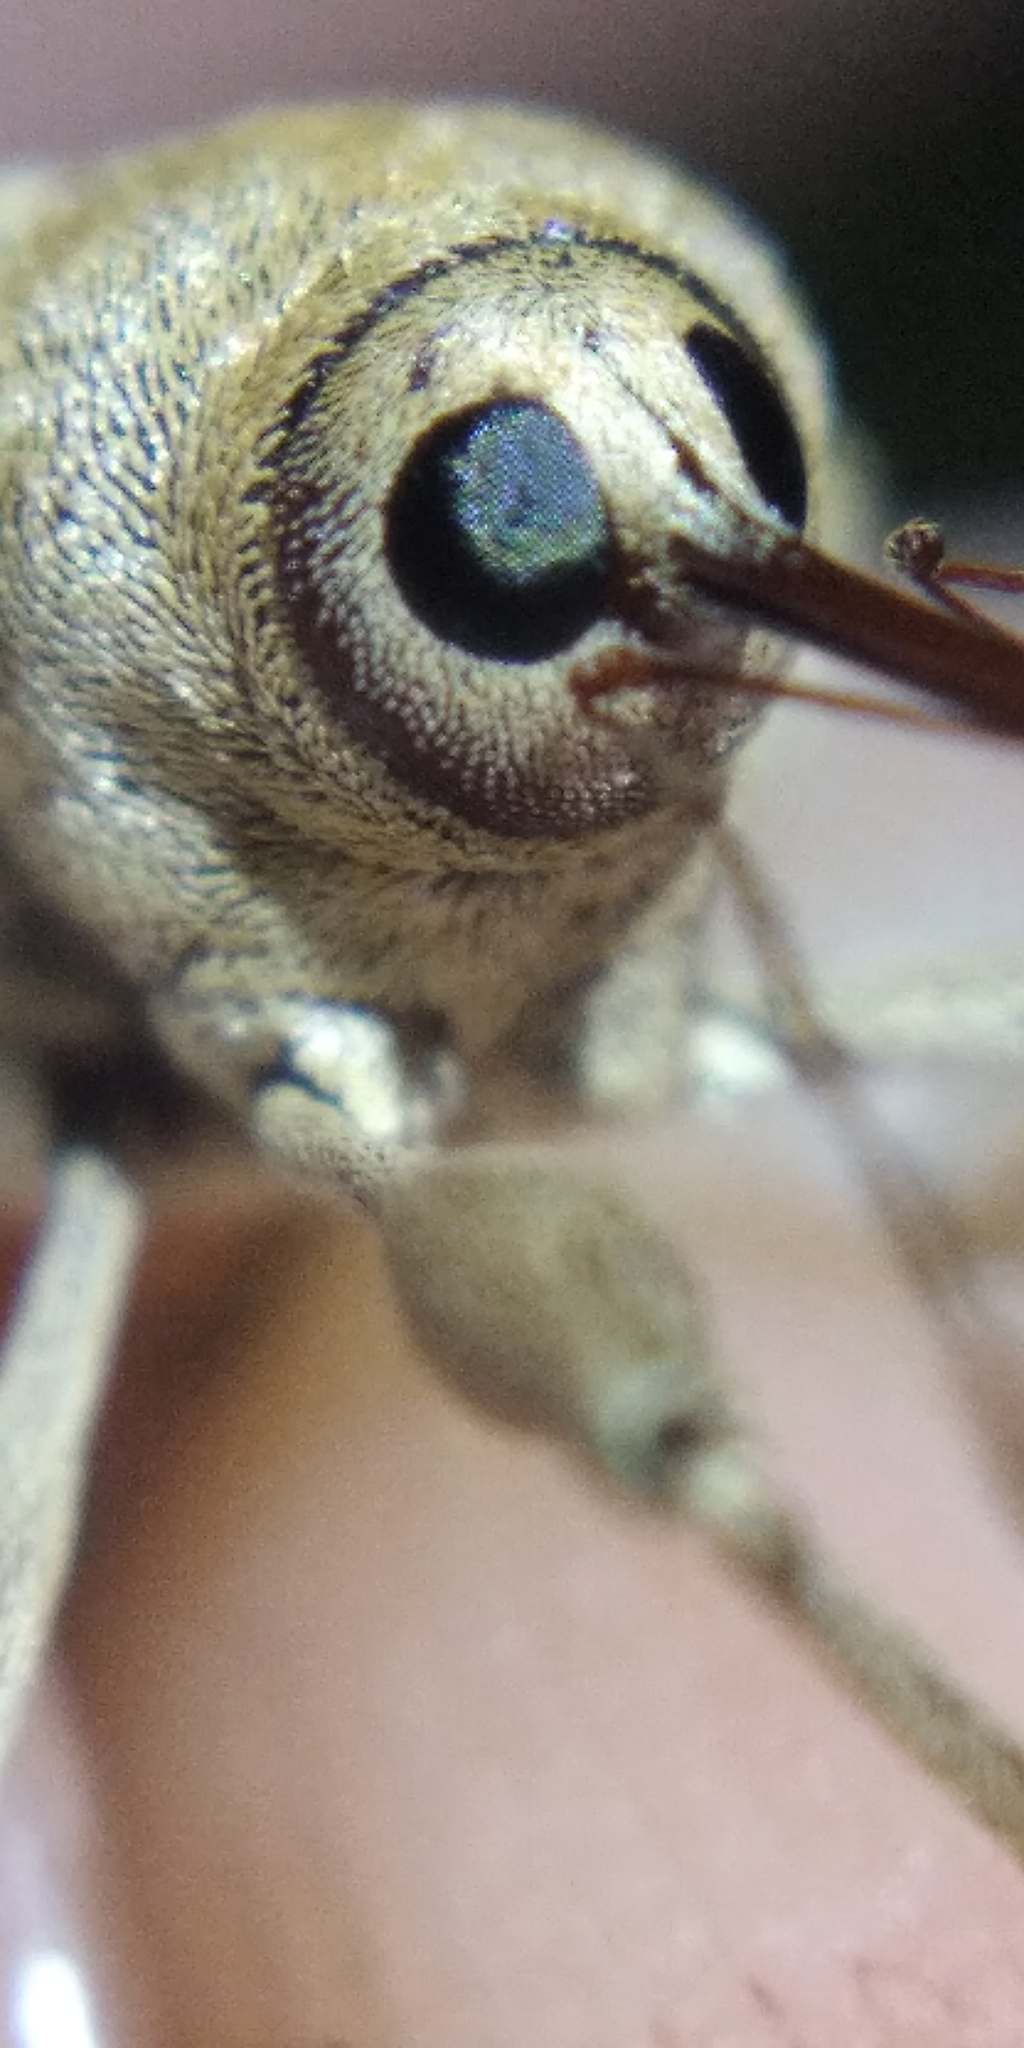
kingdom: Animalia
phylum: Arthropoda
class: Insecta
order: Coleoptera
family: Curculionidae
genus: Curculio
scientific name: Curculio elephas
